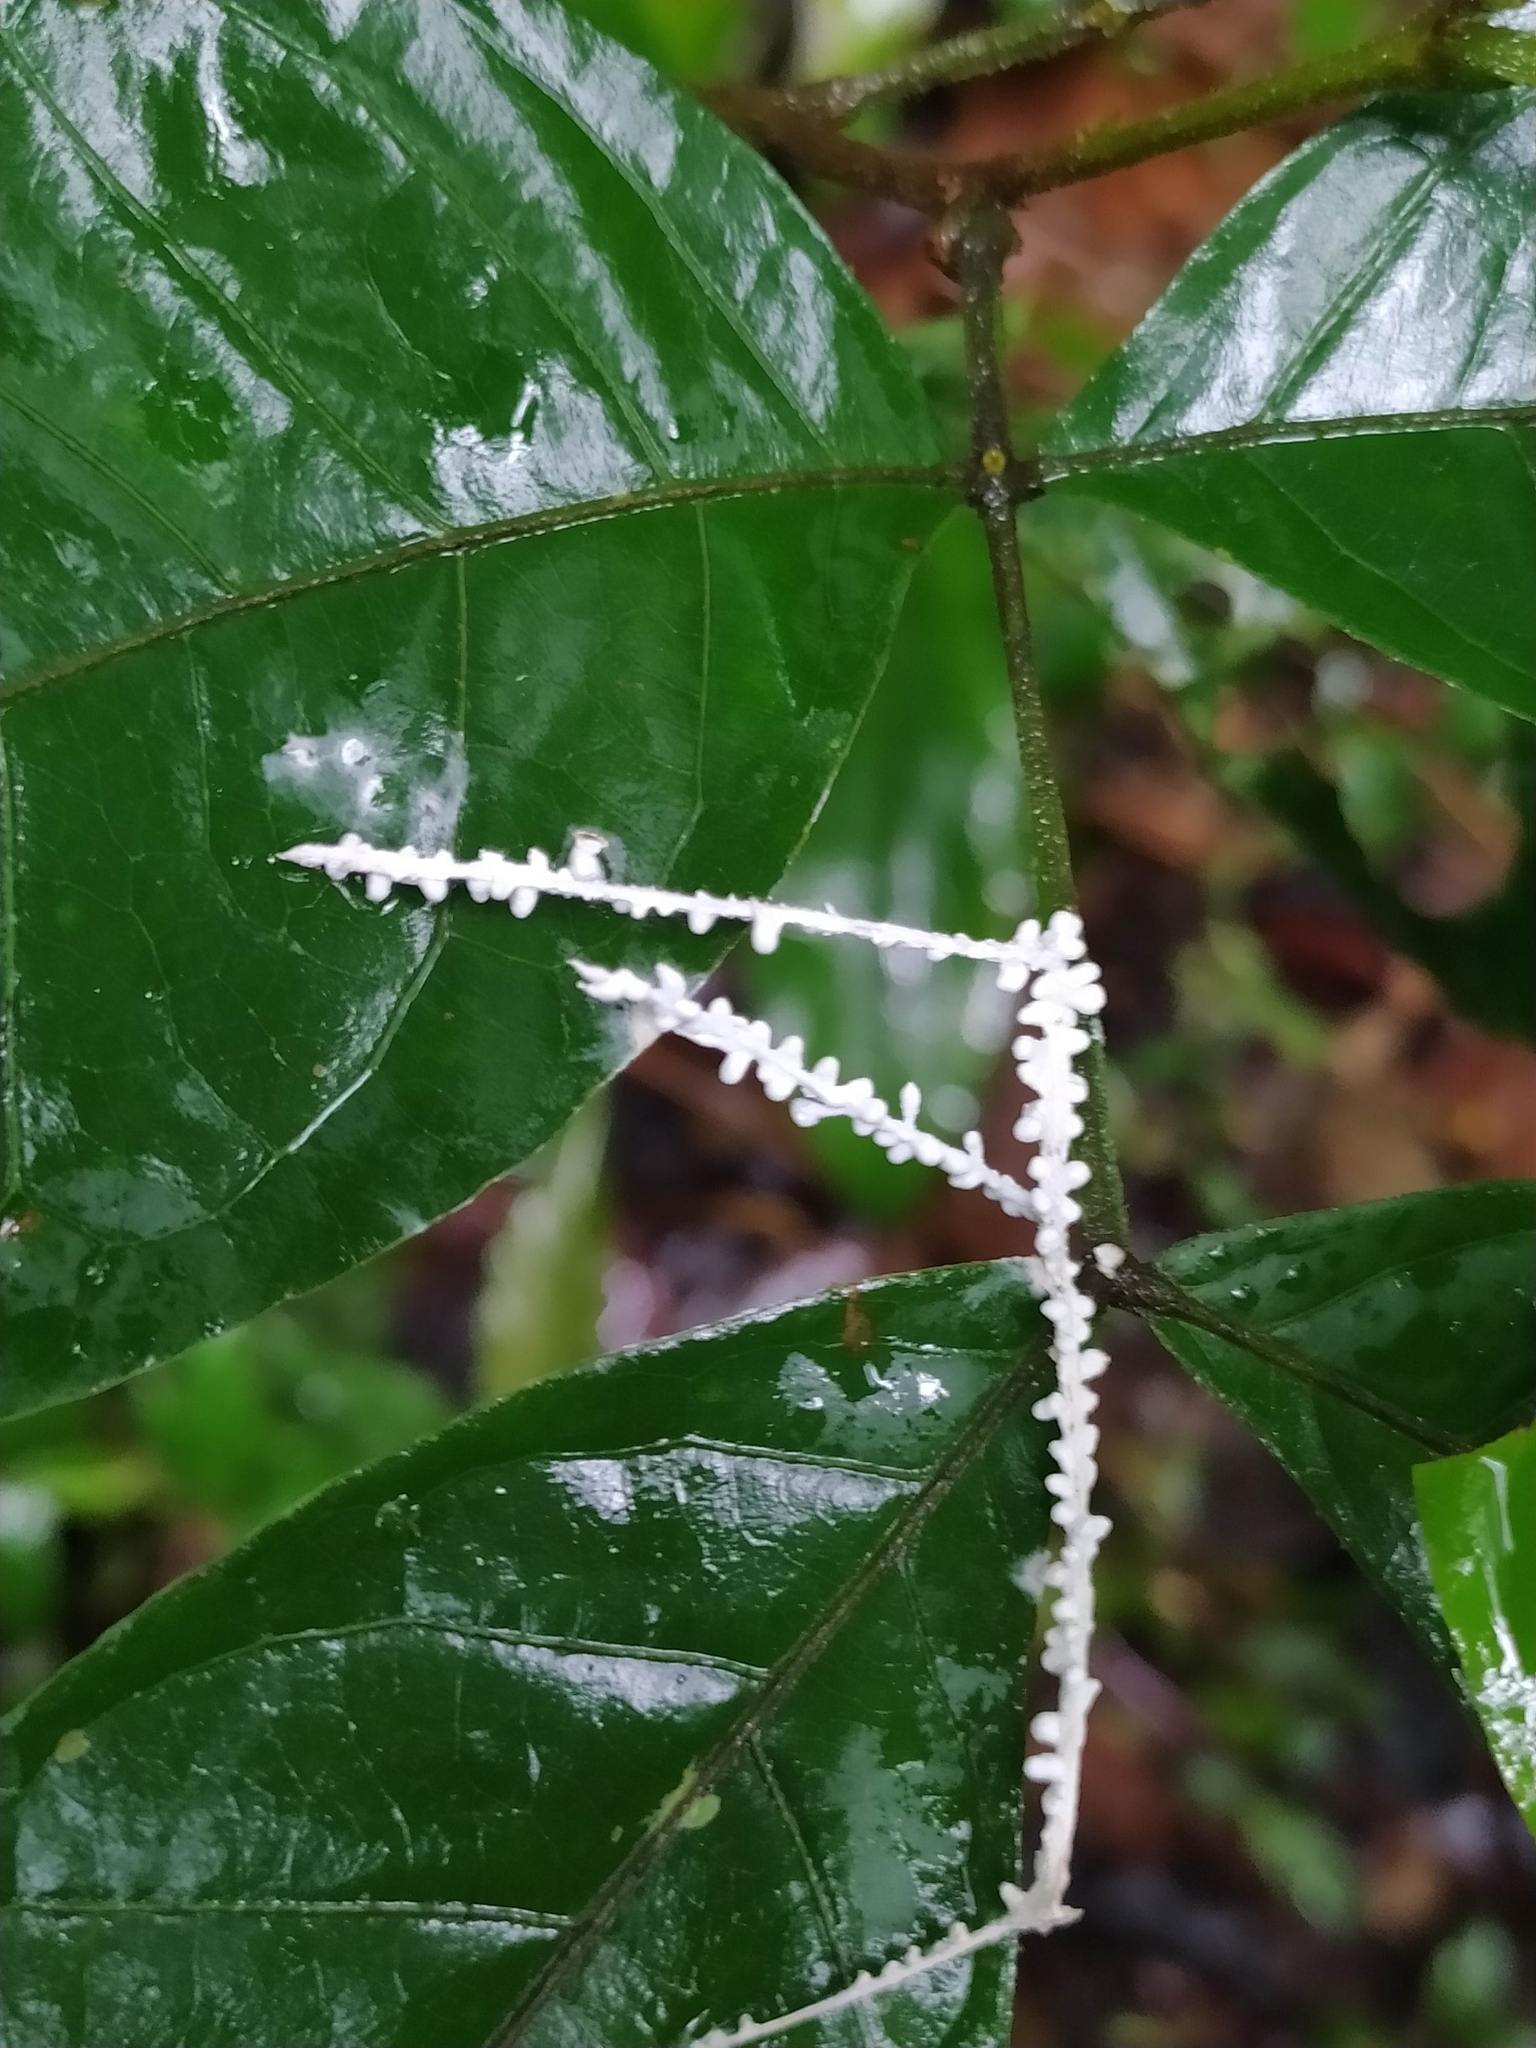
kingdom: Fungi
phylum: Basidiomycota
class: Agaricomycetes
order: Agaricales
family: Marasmiaceae
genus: Brunneocorticium
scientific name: Brunneocorticium corynecarpon
